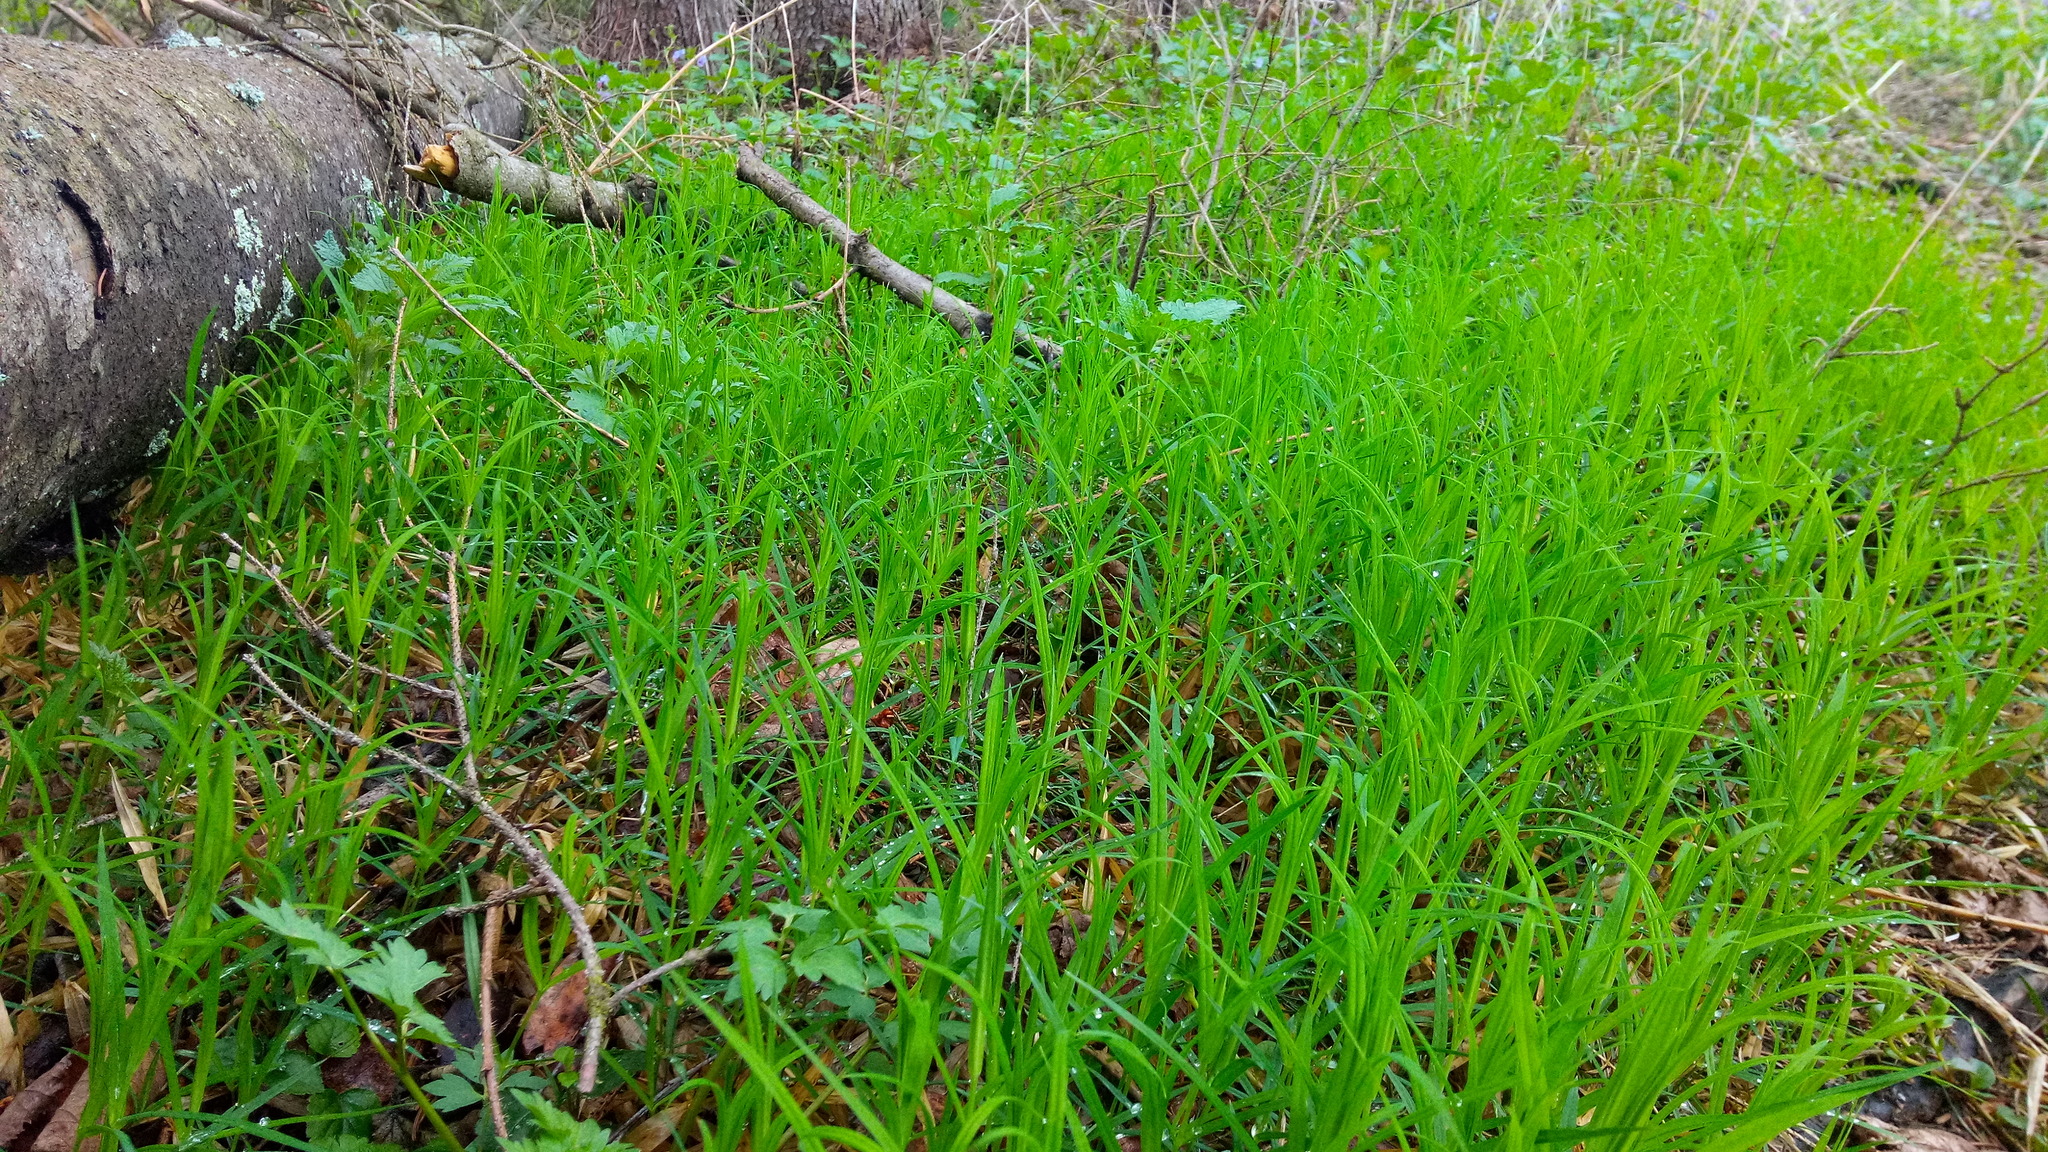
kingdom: Plantae
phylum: Tracheophyta
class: Magnoliopsida
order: Caryophyllales
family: Caryophyllaceae
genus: Rabelera
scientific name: Rabelera holostea
